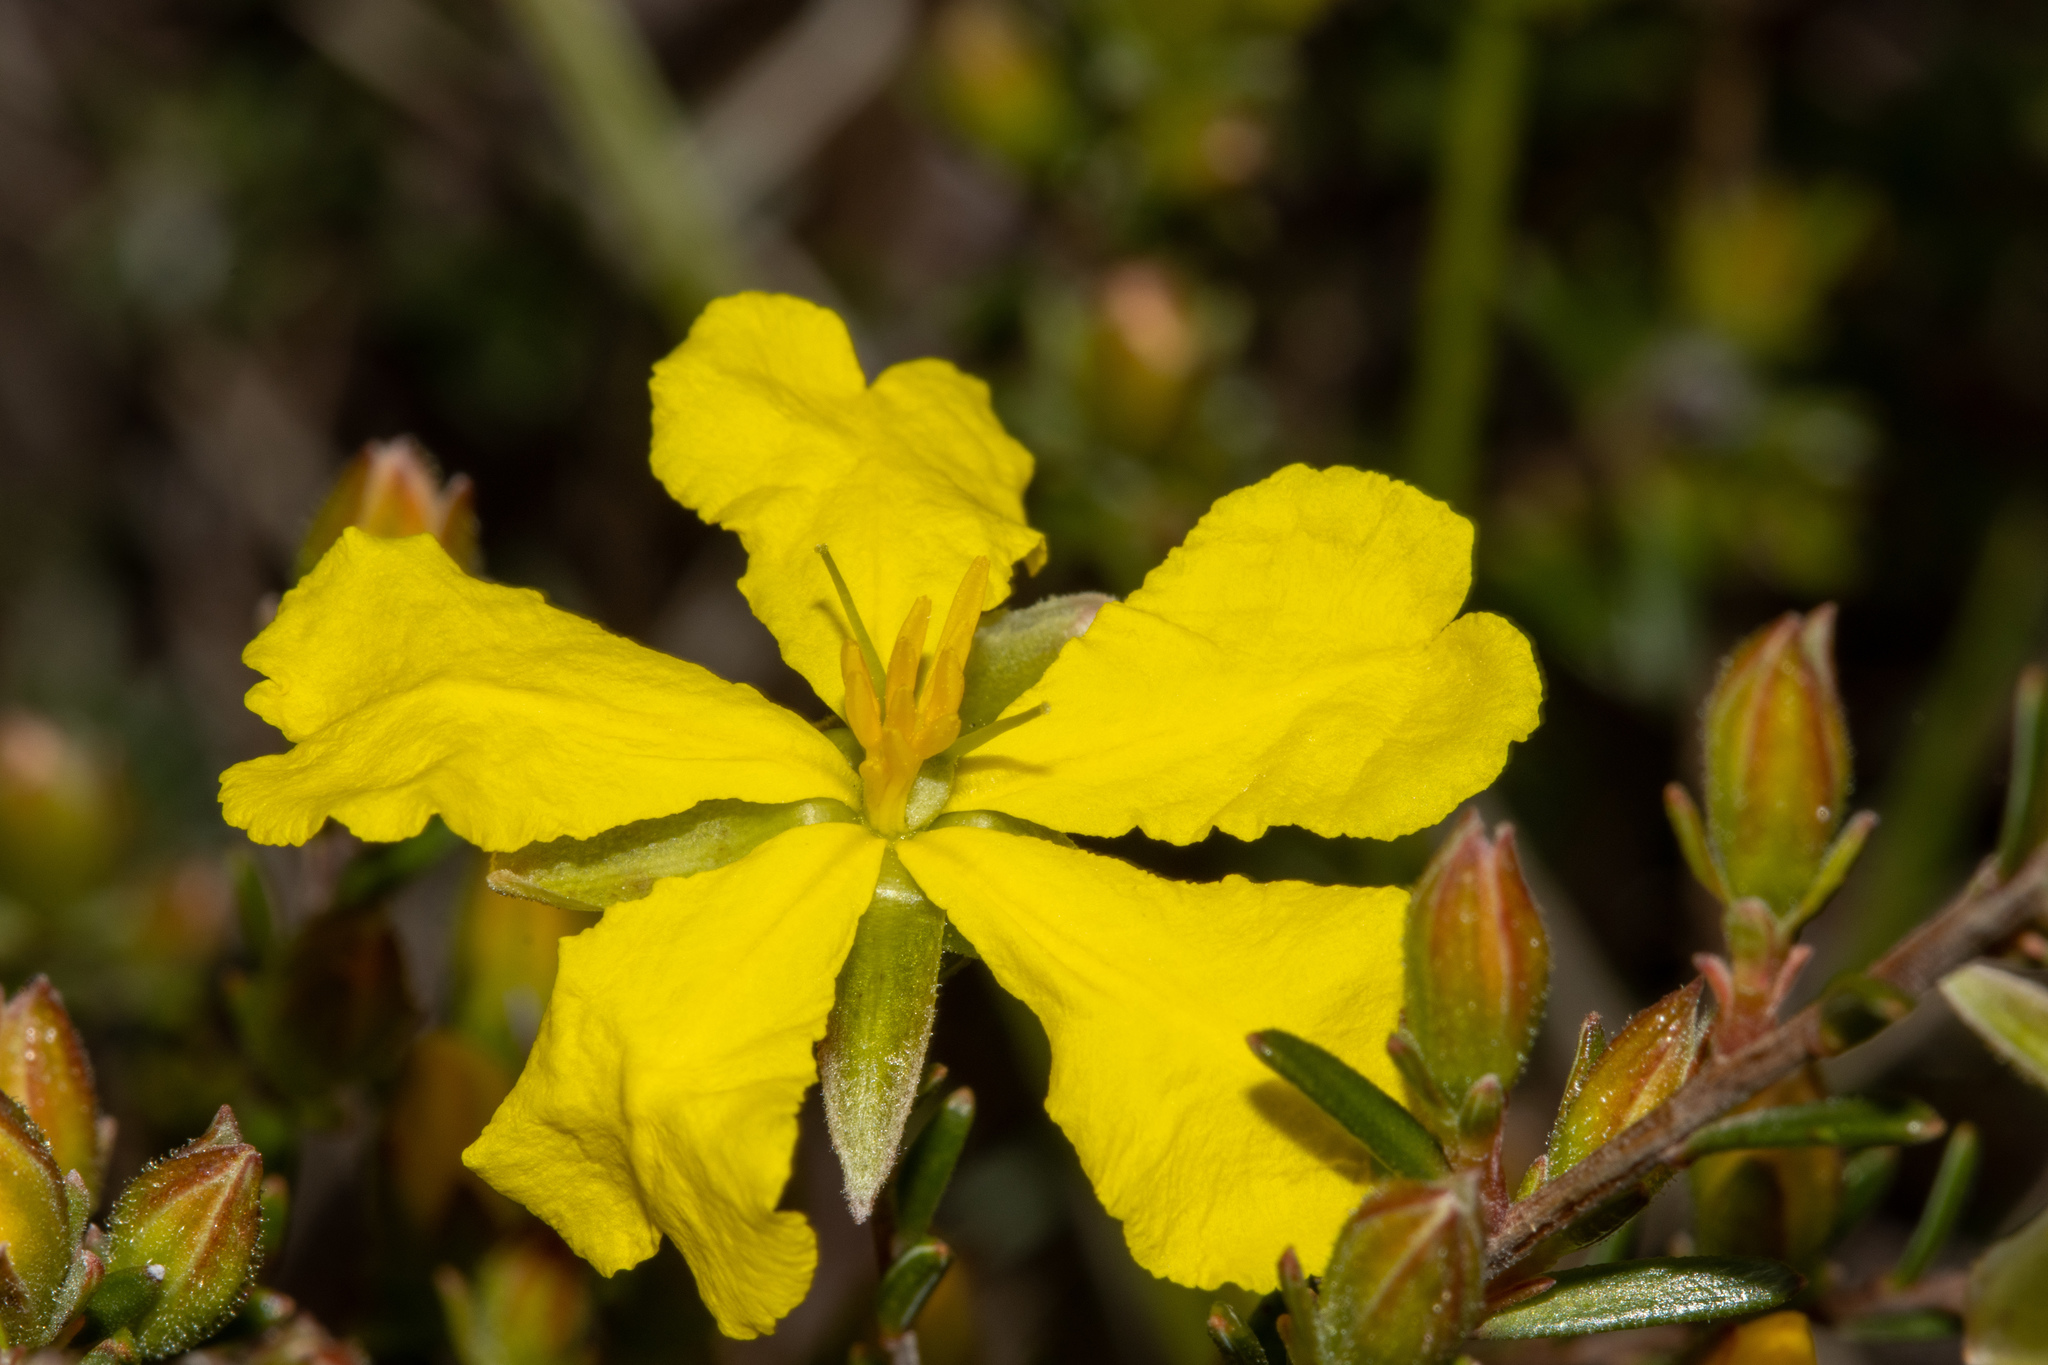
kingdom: Plantae
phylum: Tracheophyta
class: Magnoliopsida
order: Dilleniales
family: Dilleniaceae
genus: Hibbertia
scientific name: Hibbertia devitata
